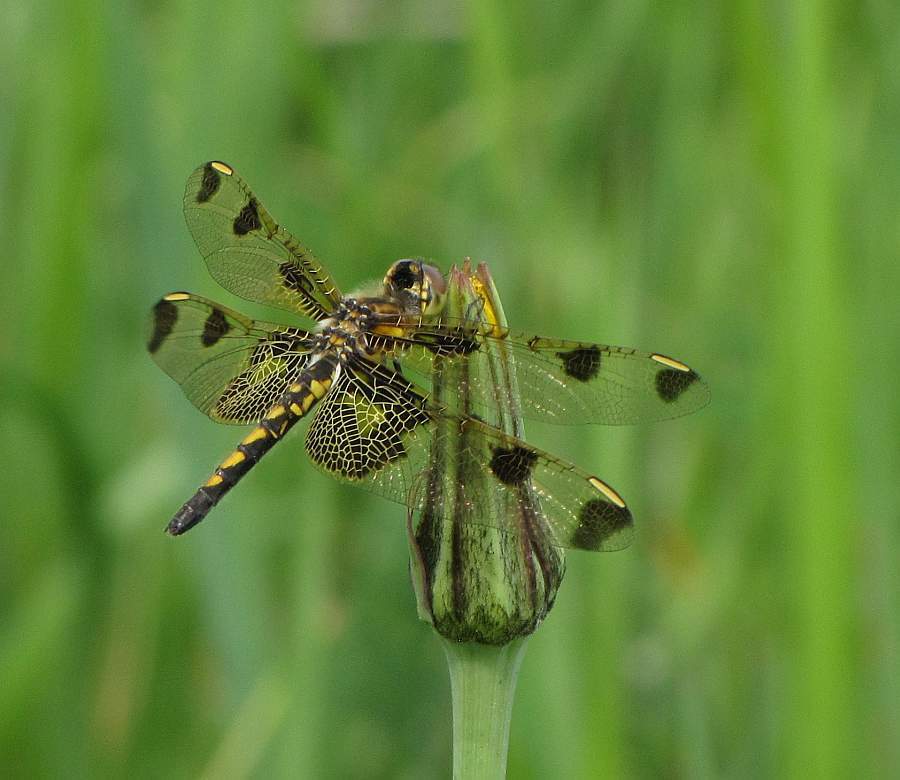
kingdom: Animalia
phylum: Arthropoda
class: Insecta
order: Odonata
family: Libellulidae
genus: Celithemis
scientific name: Celithemis elisa
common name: Calico pennant
